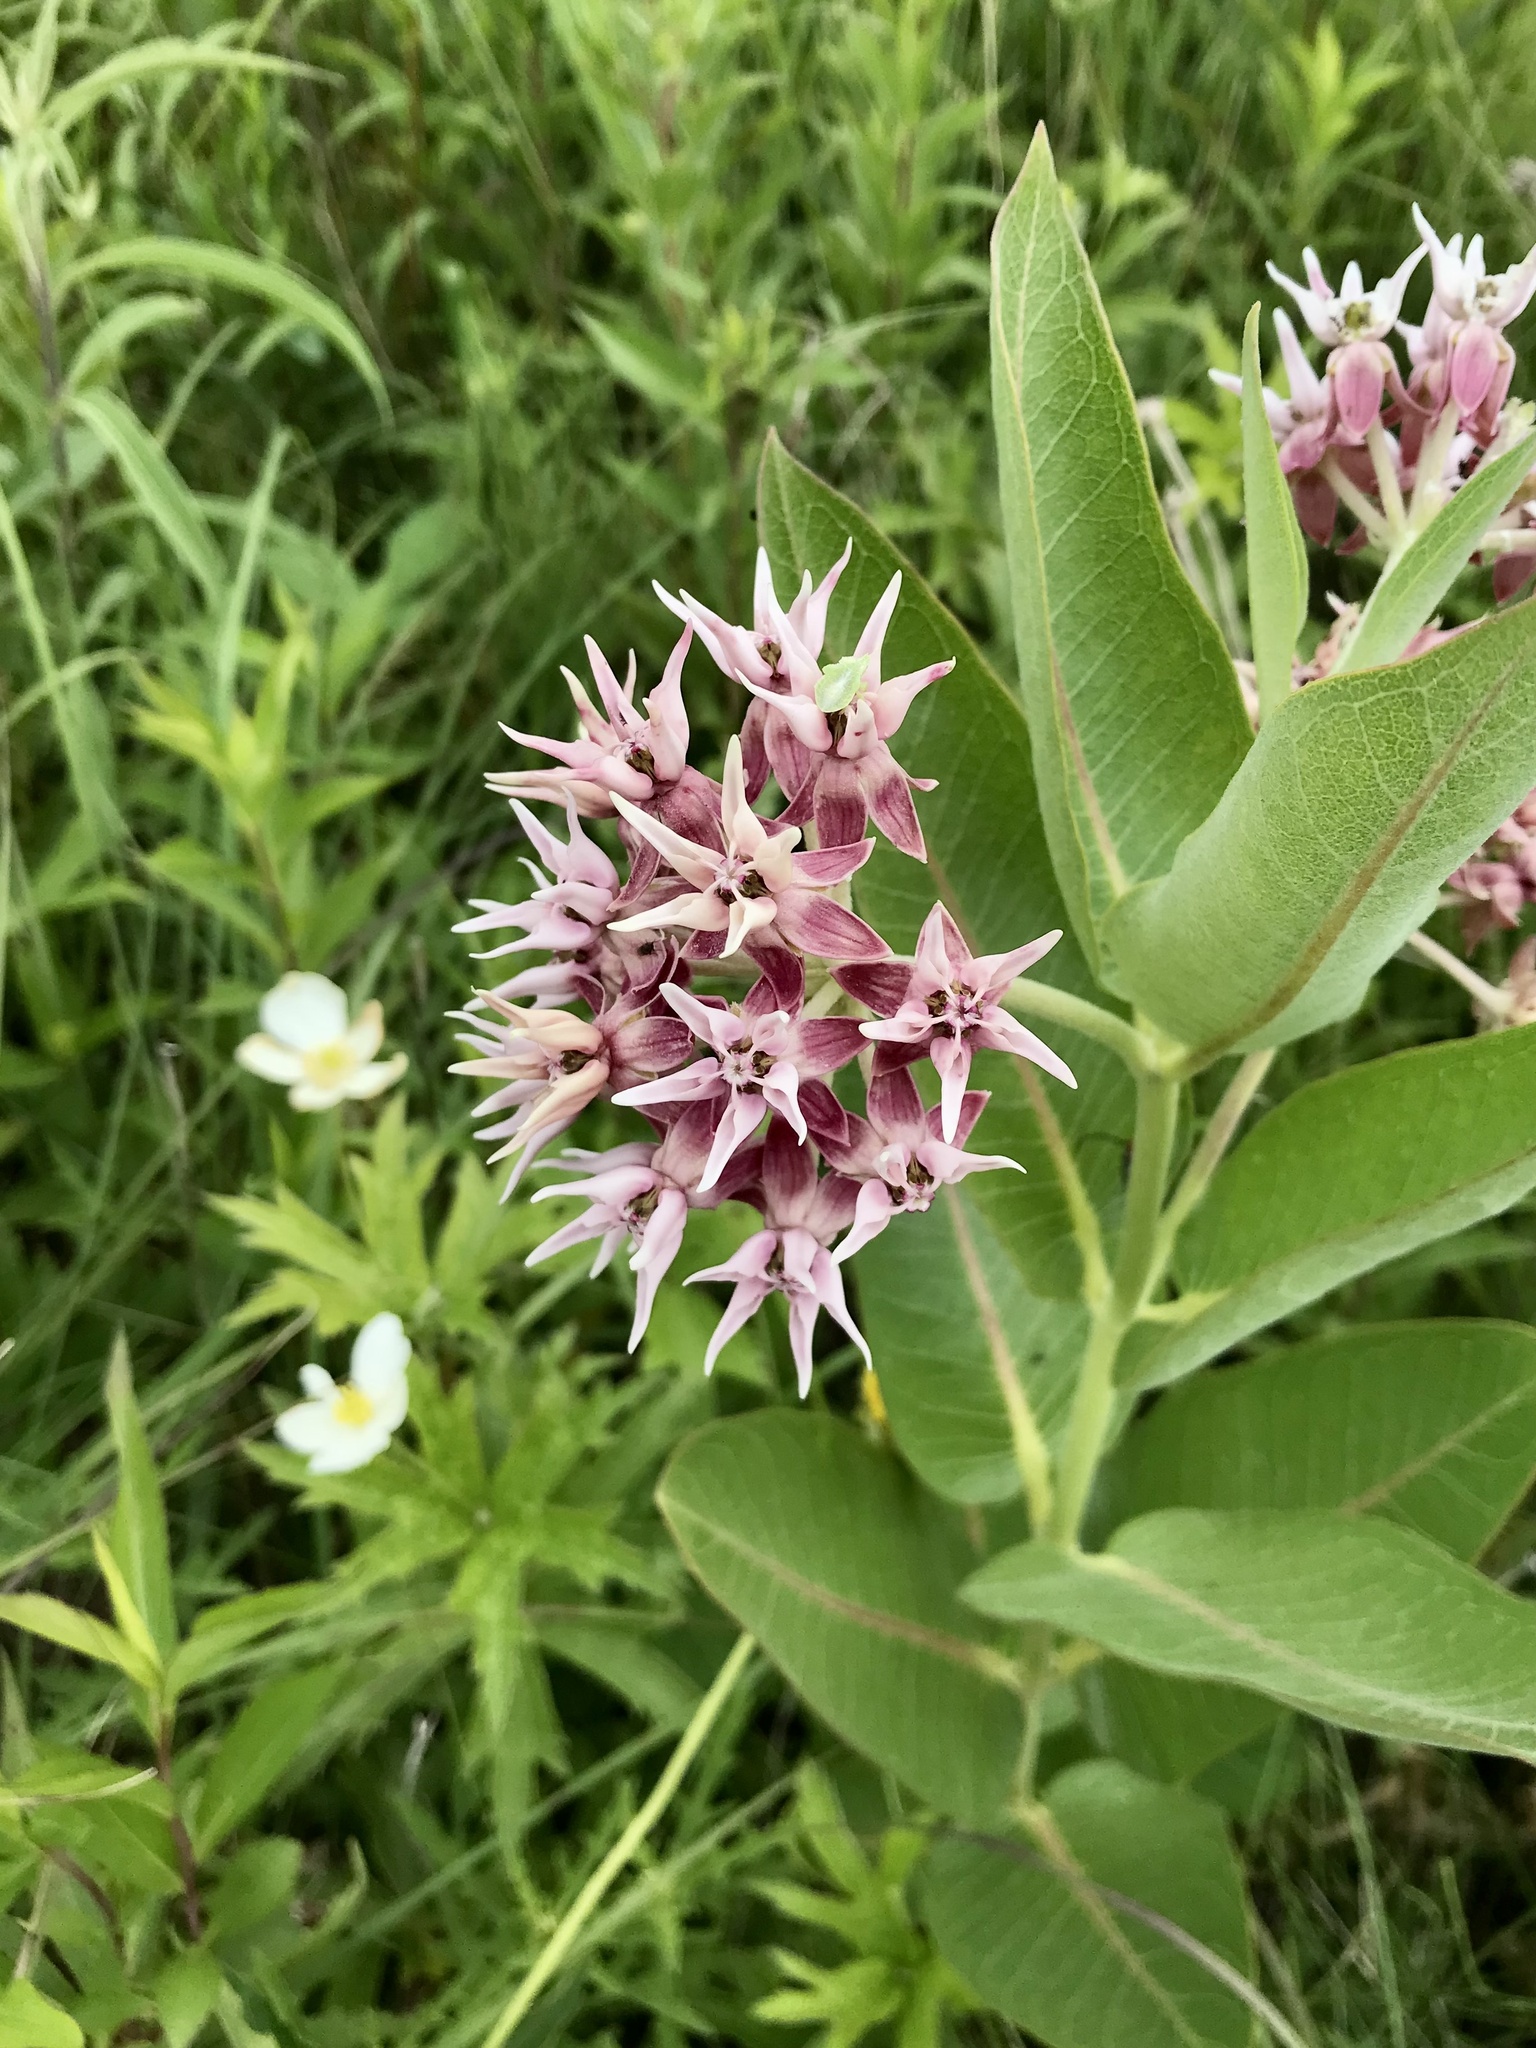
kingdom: Plantae
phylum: Tracheophyta
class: Magnoliopsida
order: Gentianales
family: Apocynaceae
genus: Asclepias
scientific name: Asclepias speciosa
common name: Showy milkweed
